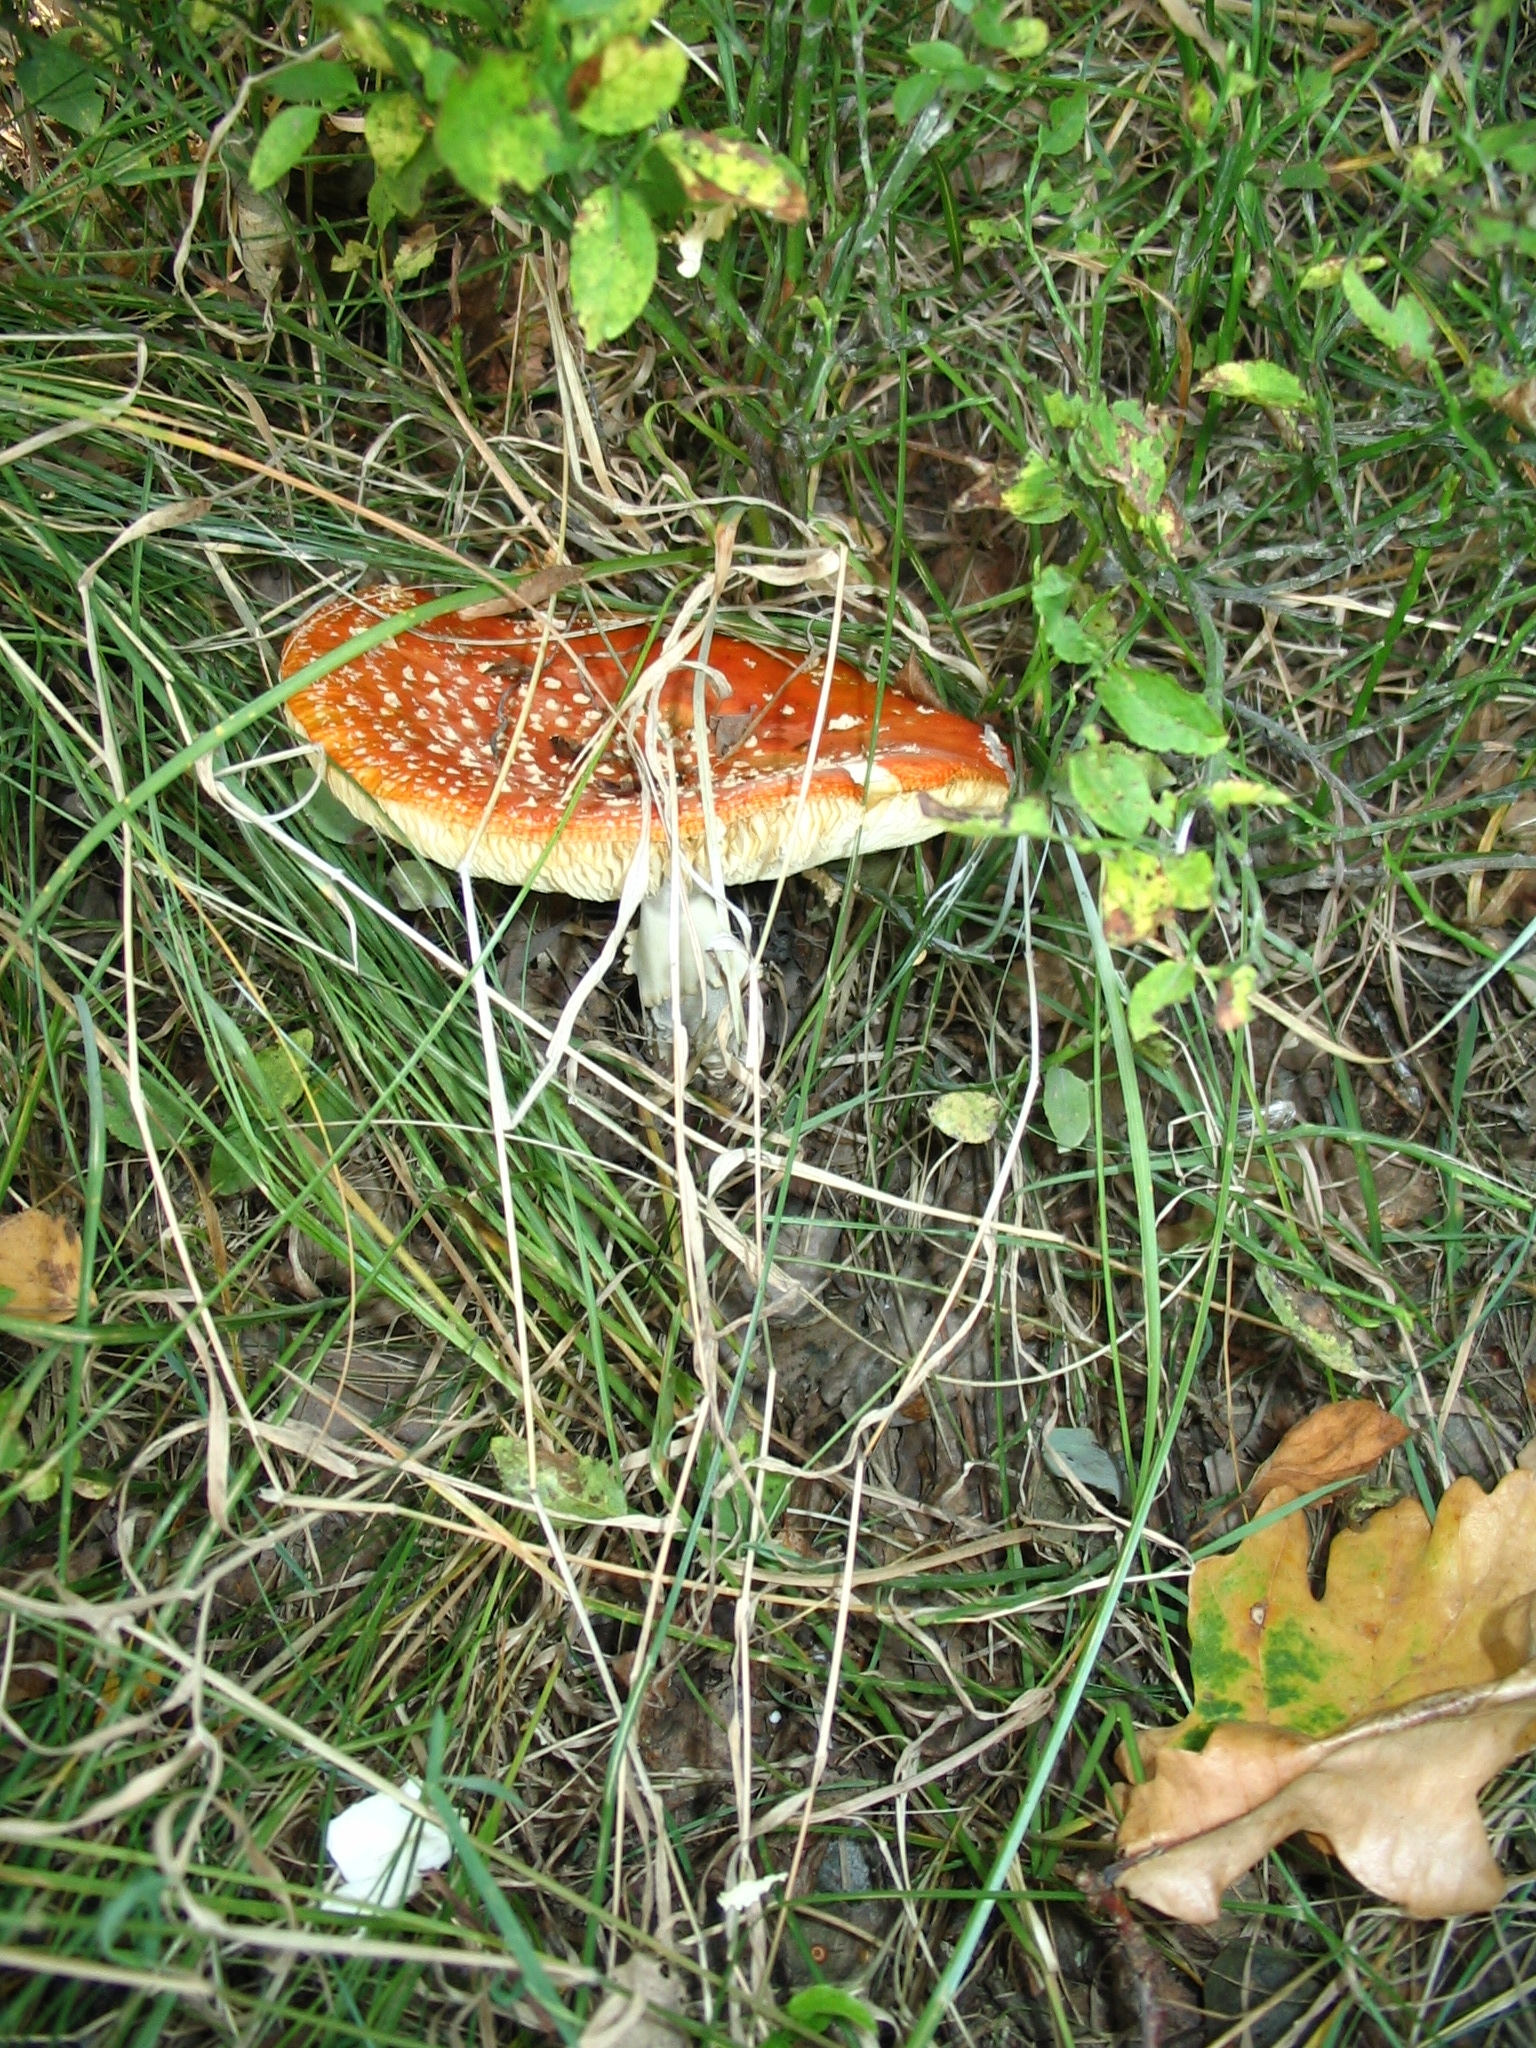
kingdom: Fungi
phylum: Basidiomycota
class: Agaricomycetes
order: Agaricales
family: Amanitaceae
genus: Amanita
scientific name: Amanita muscaria
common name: Fly agaric
